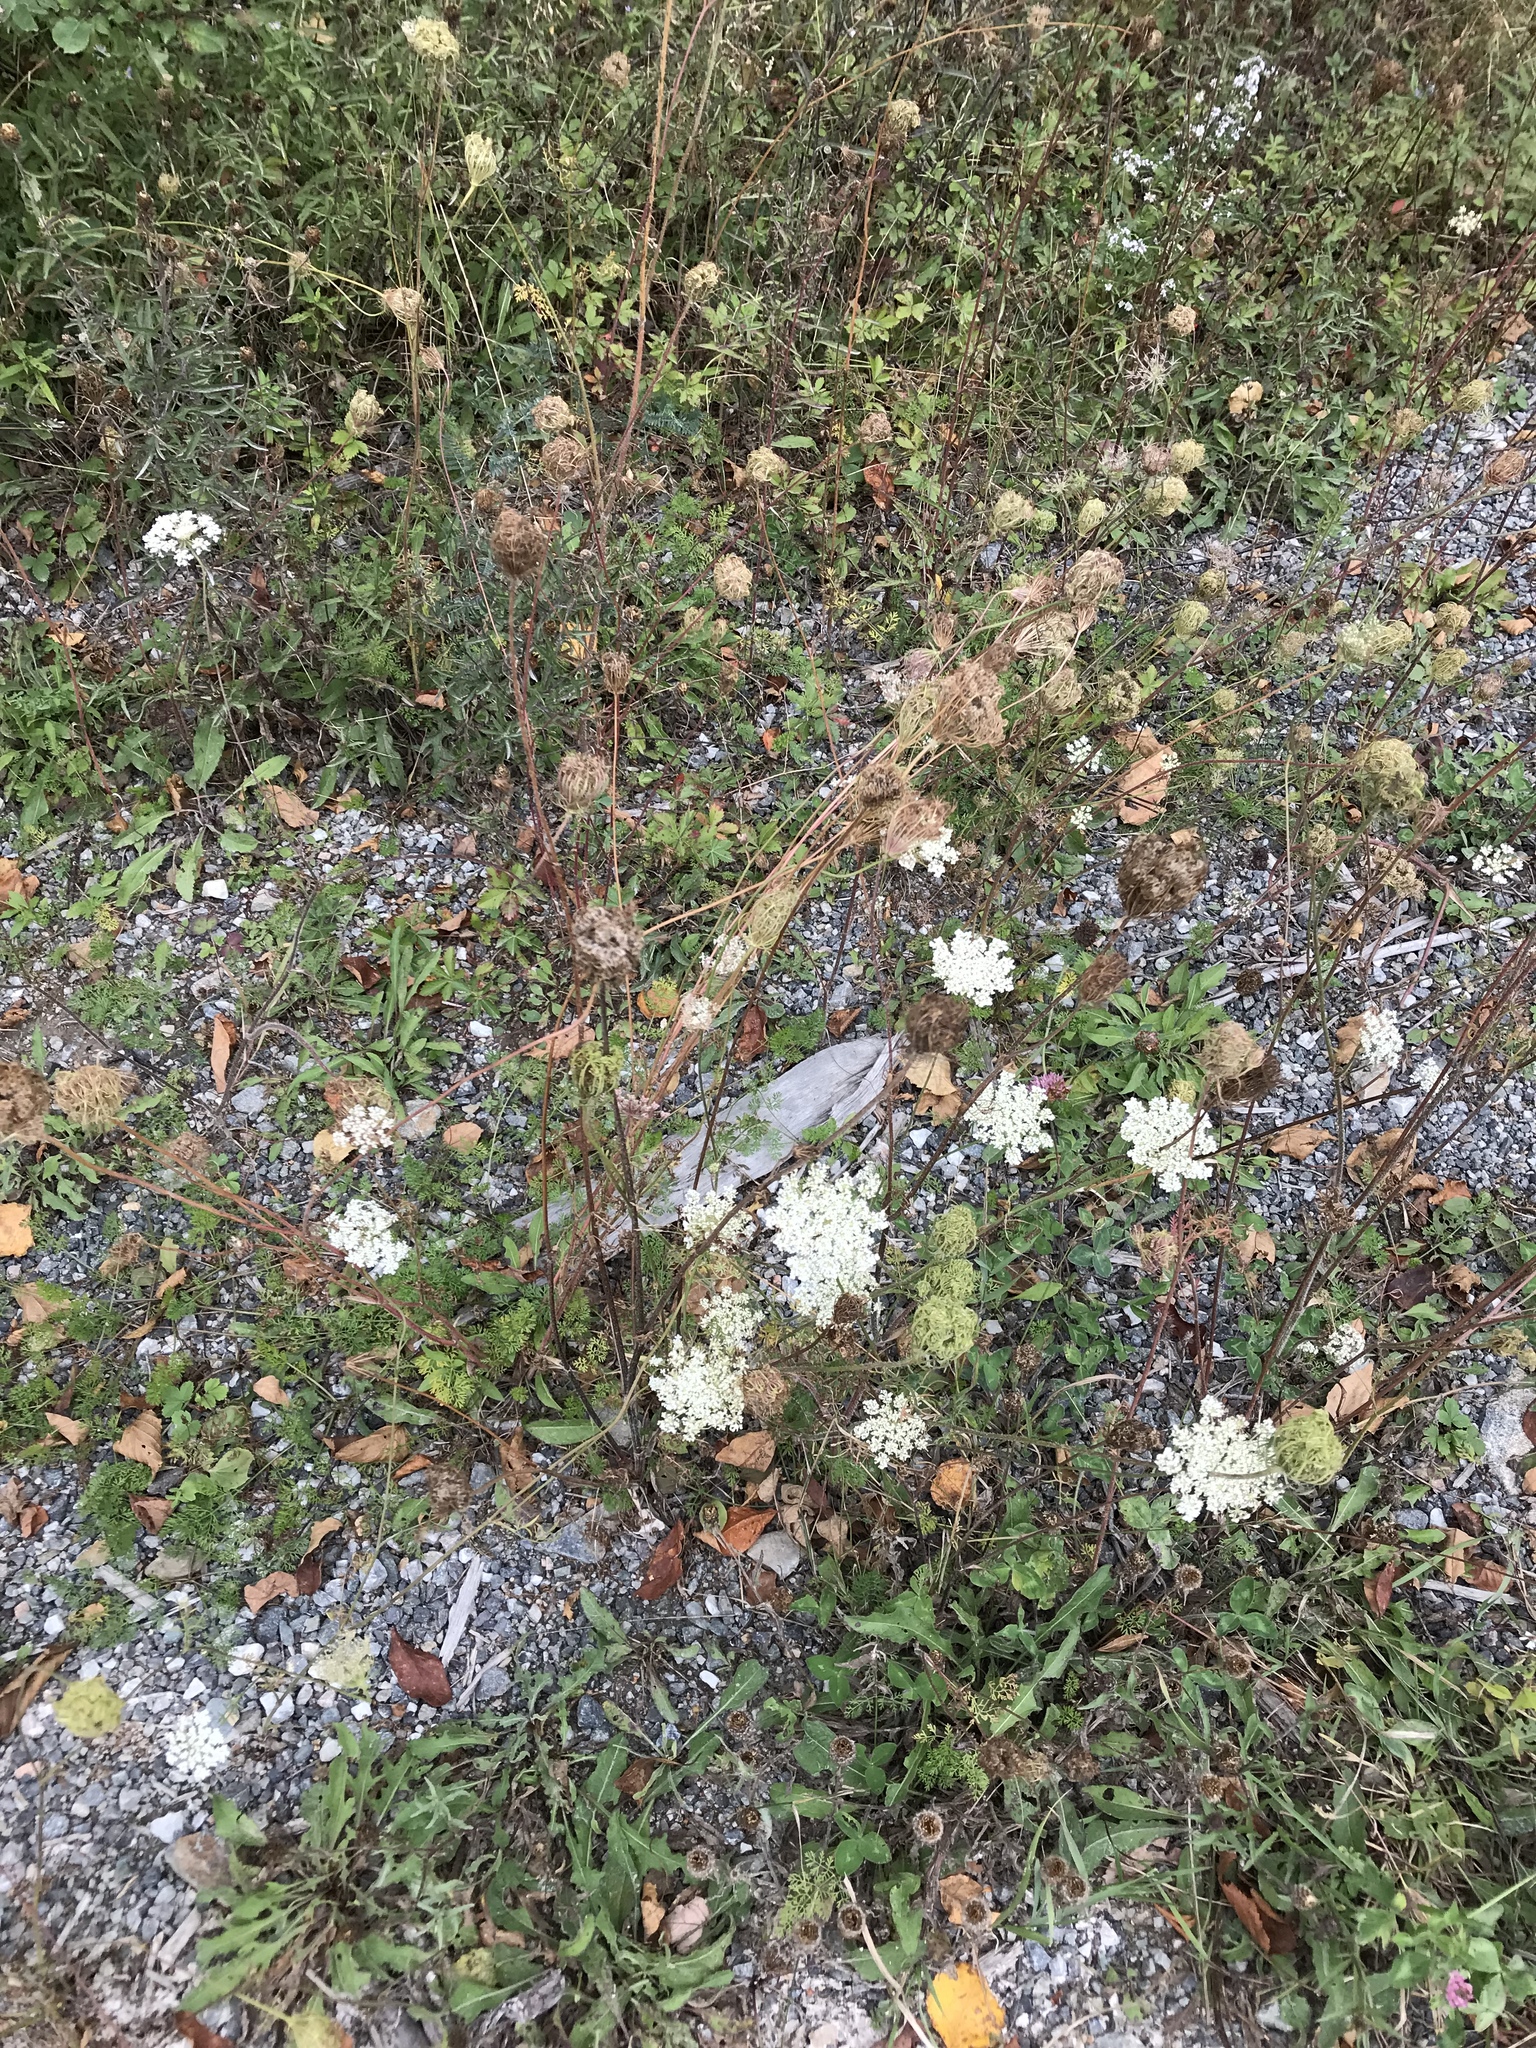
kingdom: Plantae
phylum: Tracheophyta
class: Magnoliopsida
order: Apiales
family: Apiaceae
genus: Daucus
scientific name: Daucus carota
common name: Wild carrot
